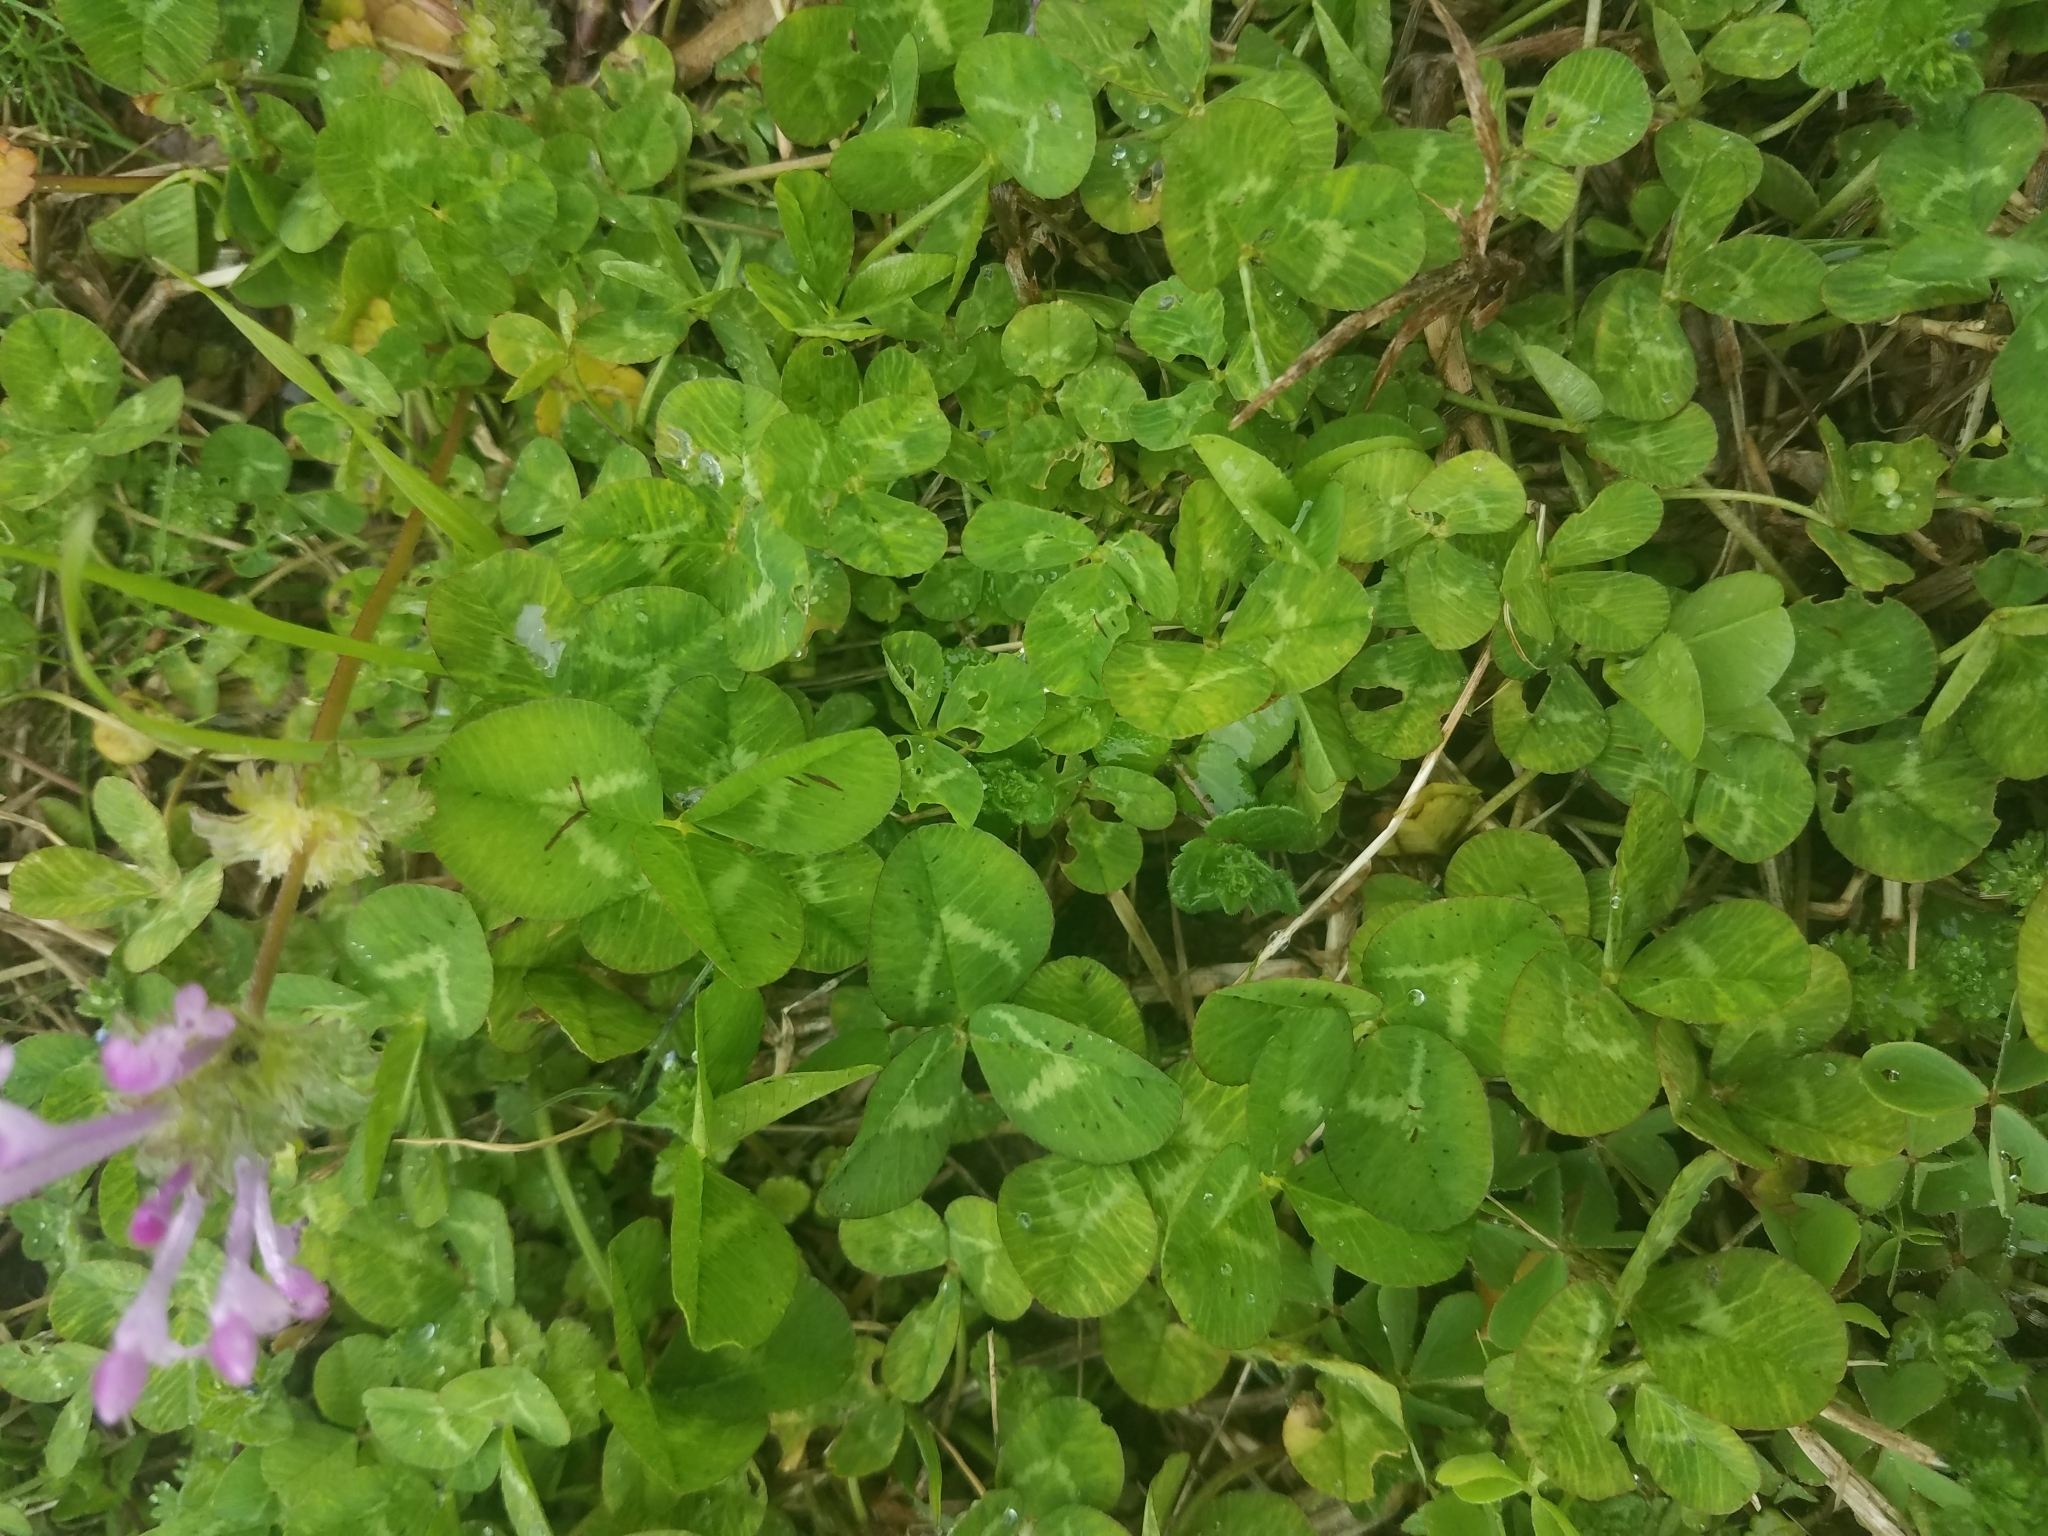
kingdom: Plantae
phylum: Tracheophyta
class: Magnoliopsida
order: Fabales
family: Fabaceae
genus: Trifolium
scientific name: Trifolium repens
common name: White clover
